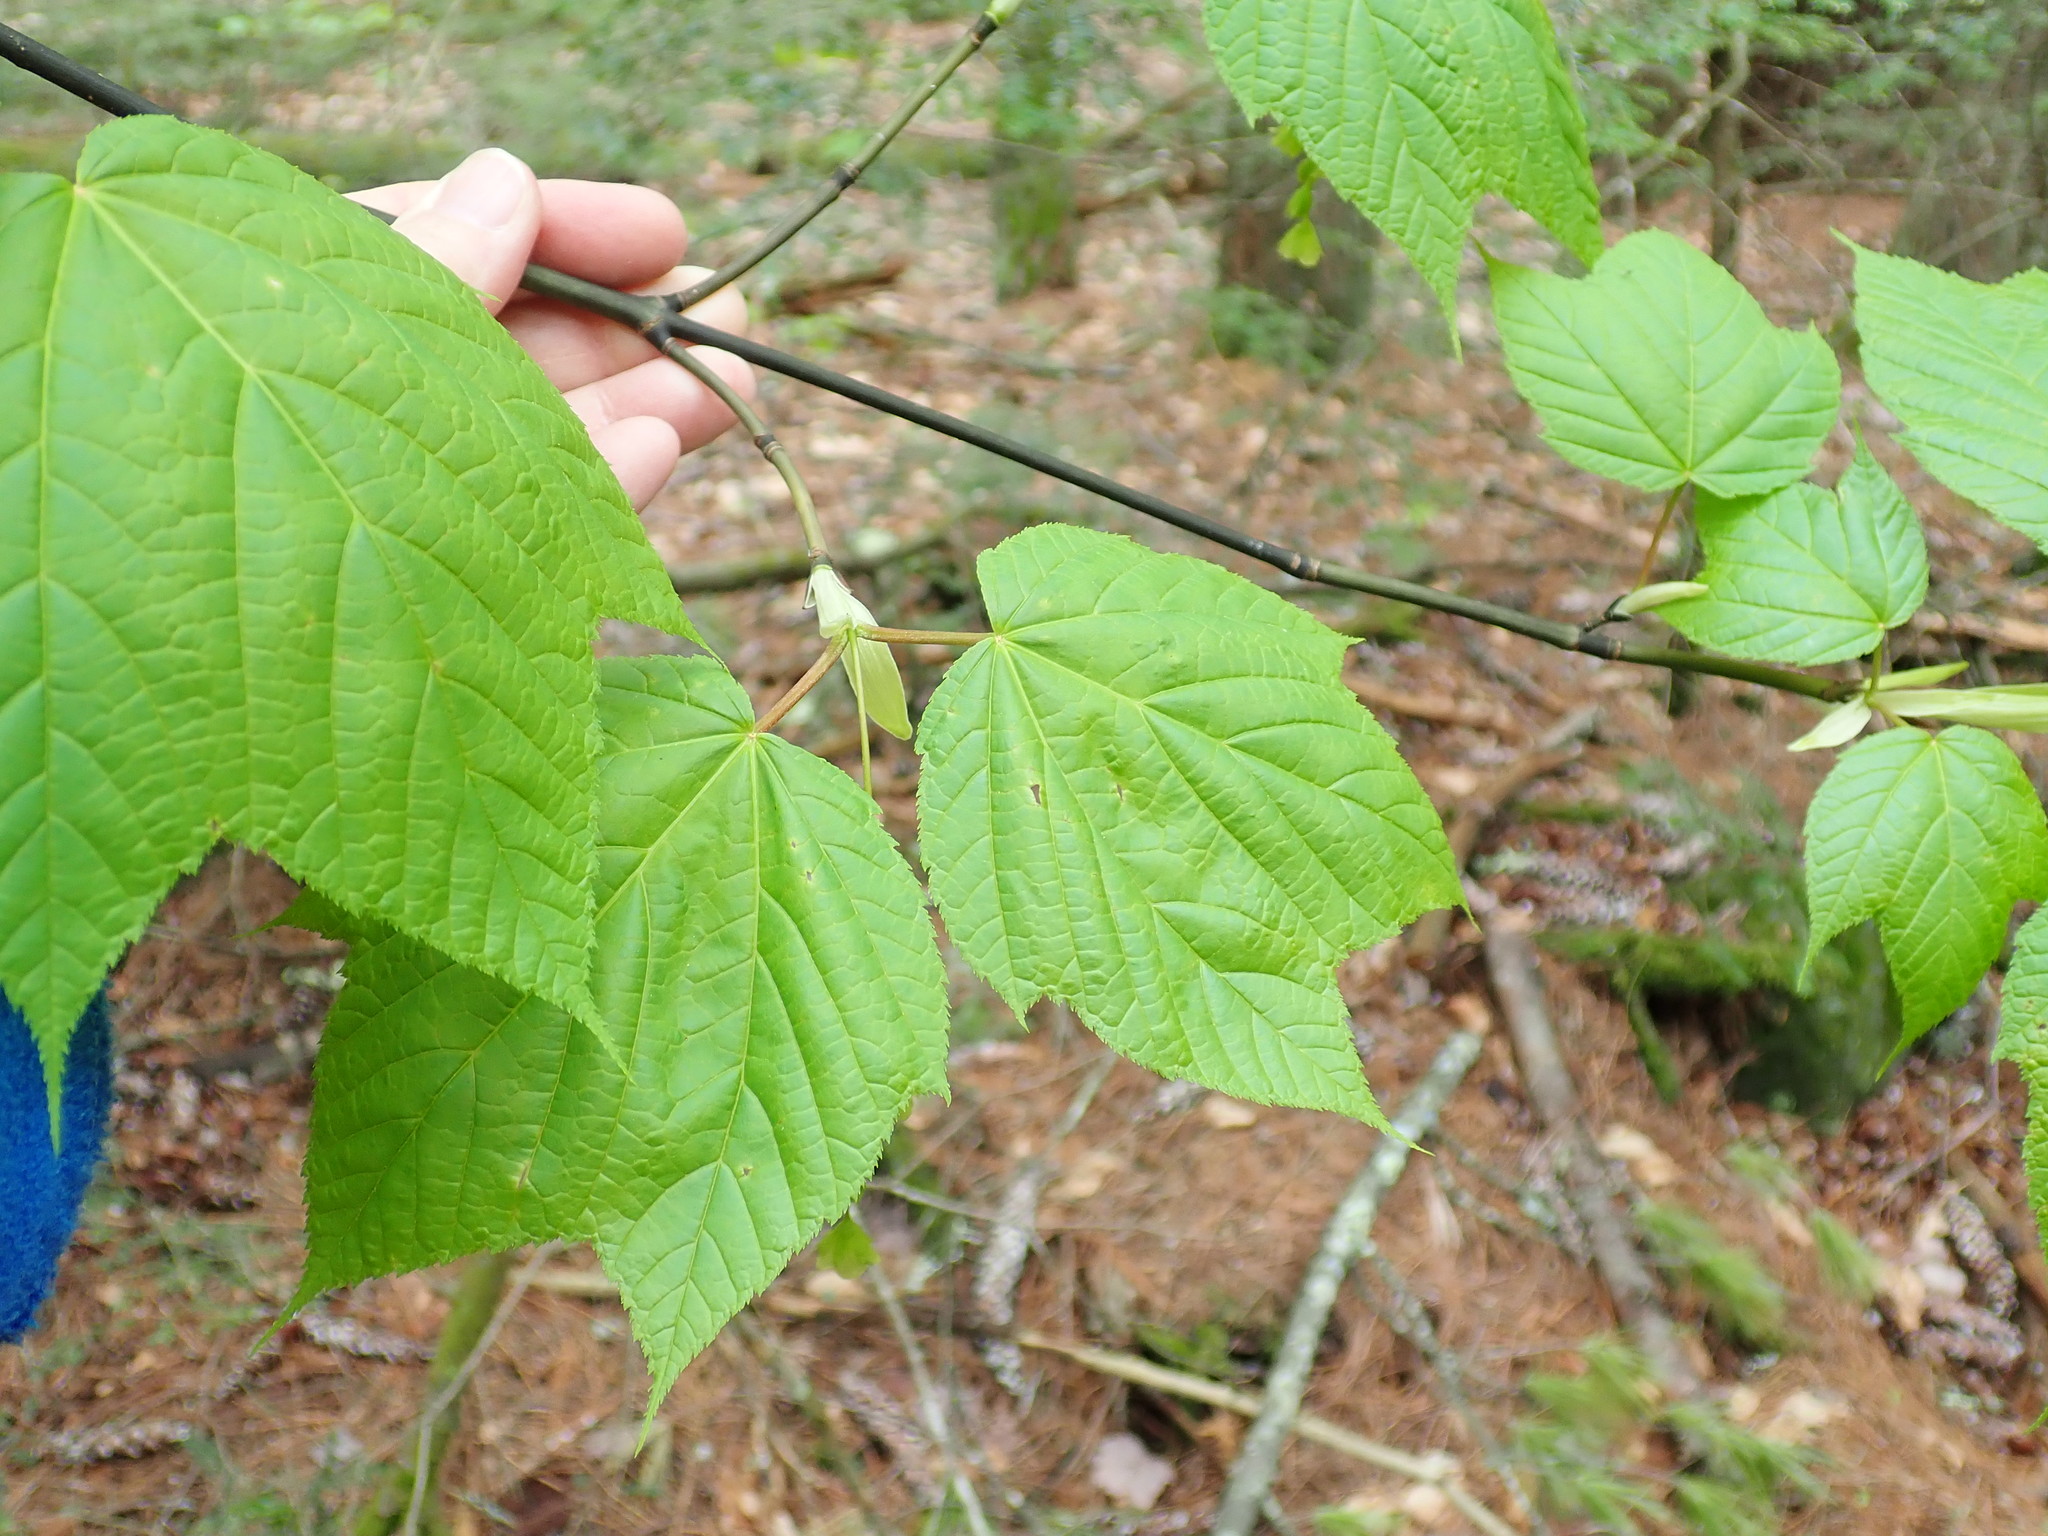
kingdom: Plantae
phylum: Tracheophyta
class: Magnoliopsida
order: Sapindales
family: Sapindaceae
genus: Acer
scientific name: Acer pensylvanicum
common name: Moosewood
